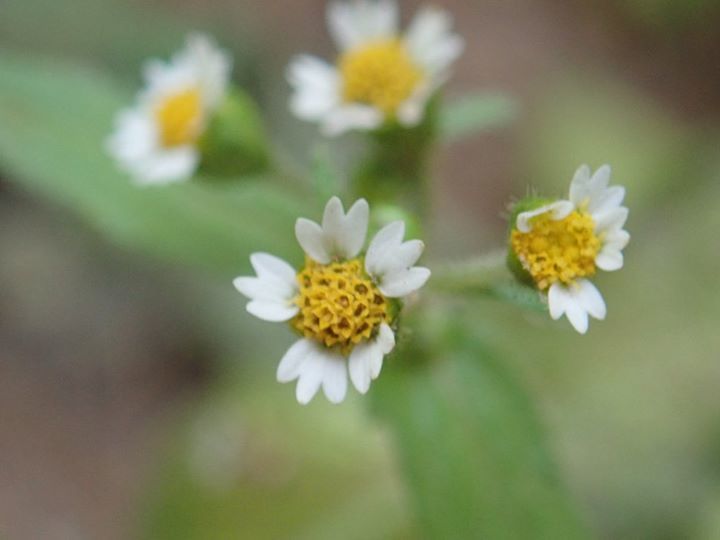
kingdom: Plantae
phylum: Tracheophyta
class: Magnoliopsida
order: Asterales
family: Asteraceae
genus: Galinsoga
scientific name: Galinsoga quadriradiata
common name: Shaggy soldier
